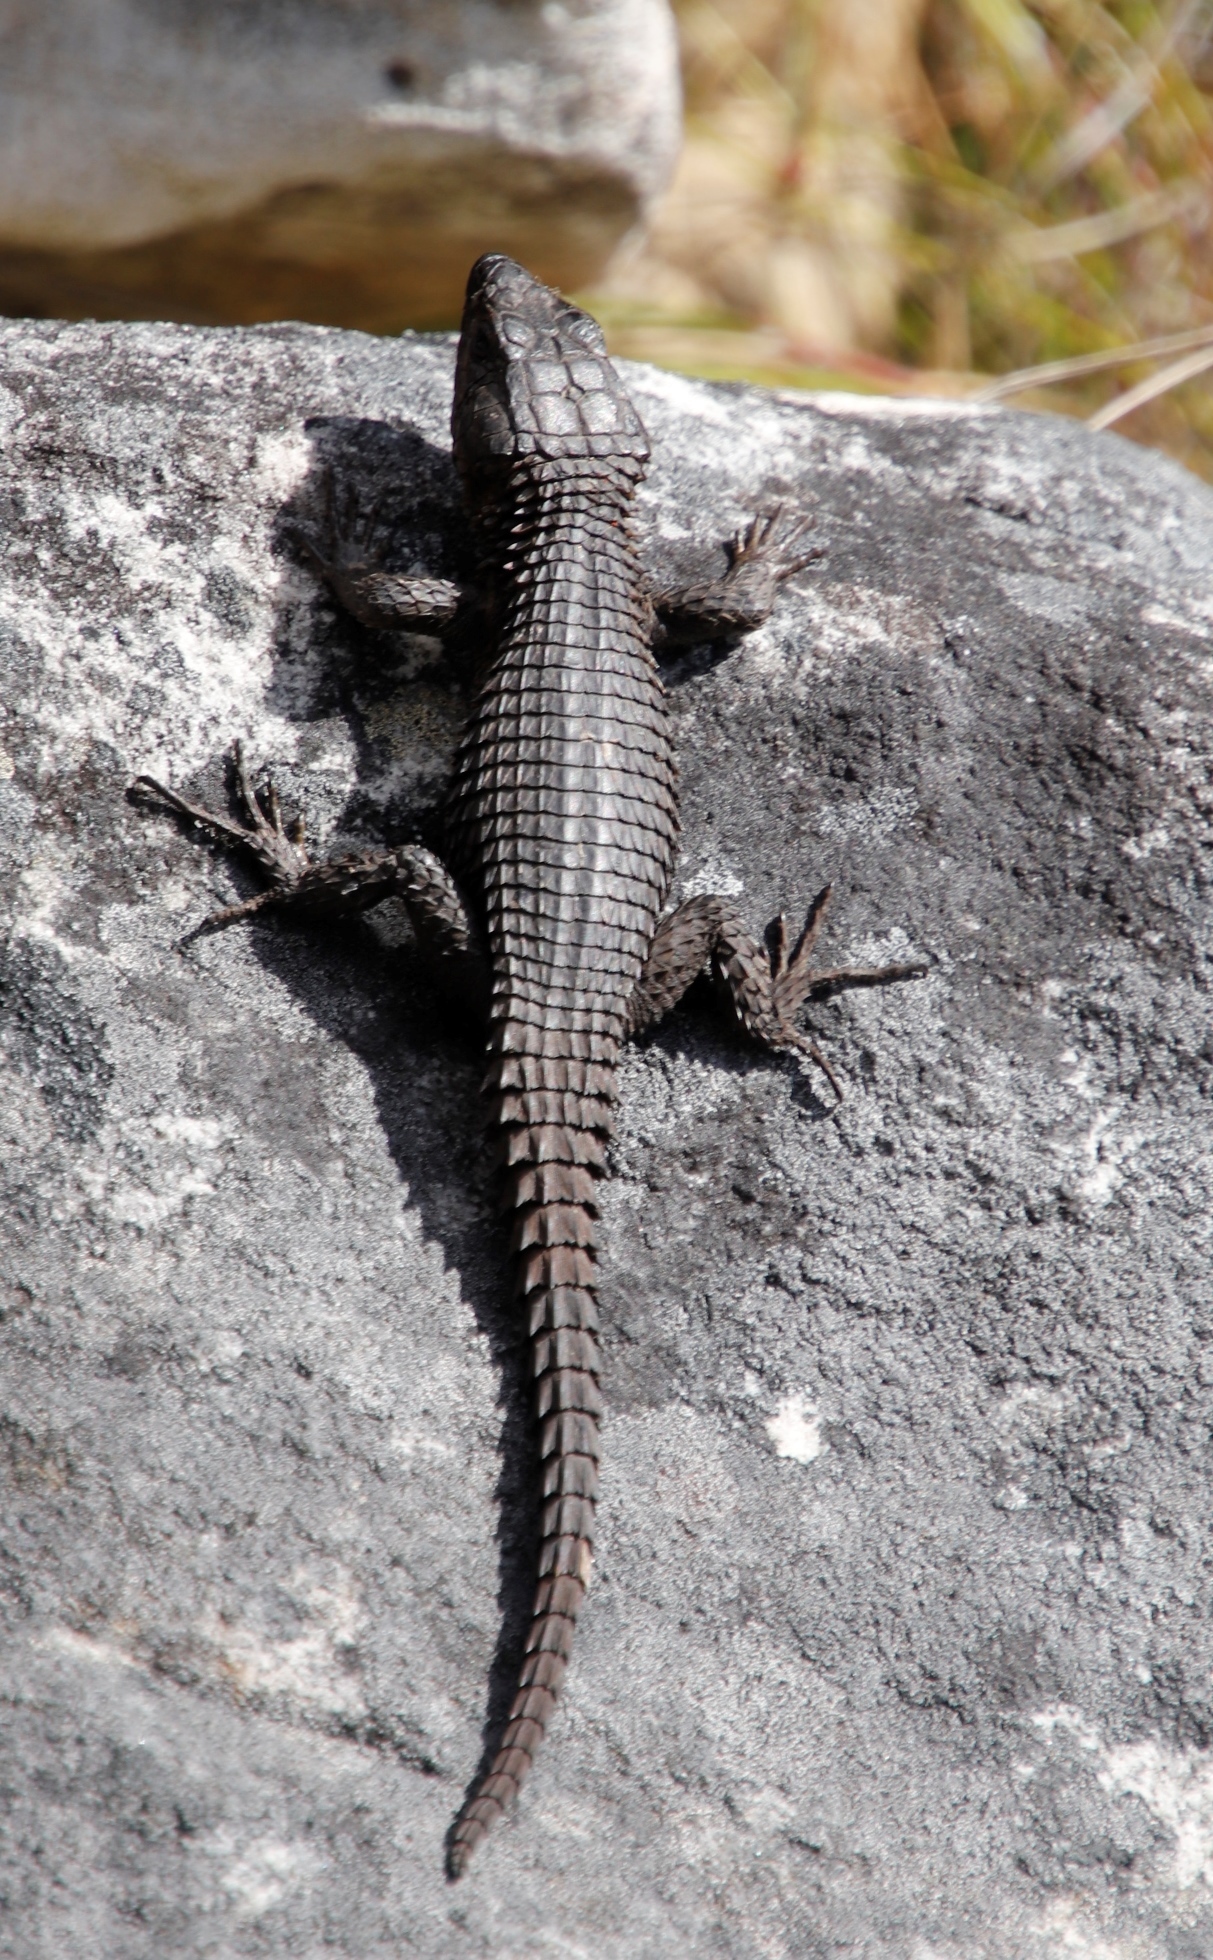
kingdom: Animalia
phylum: Chordata
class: Squamata
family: Cordylidae
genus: Cordylus
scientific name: Cordylus niger
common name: Black girdled lizard
